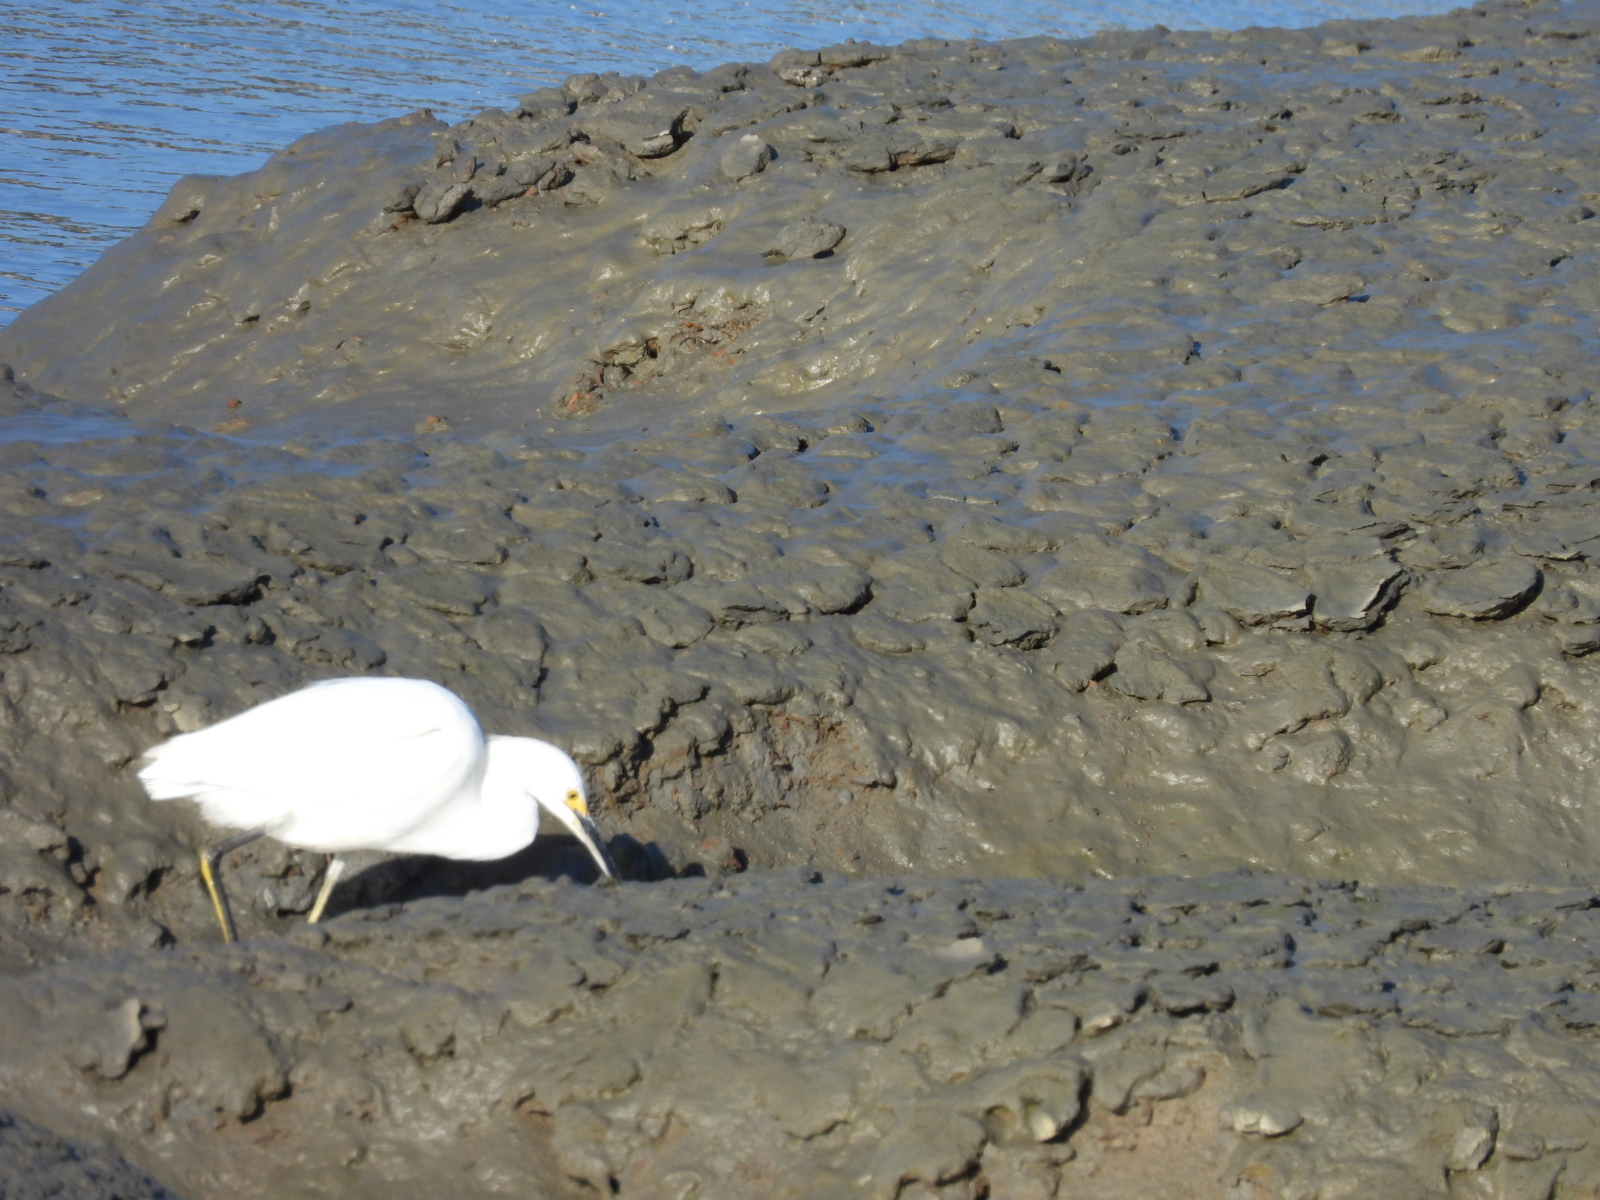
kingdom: Animalia
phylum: Chordata
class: Aves
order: Pelecaniformes
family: Ardeidae
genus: Egretta
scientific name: Egretta thula
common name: Snowy egret
